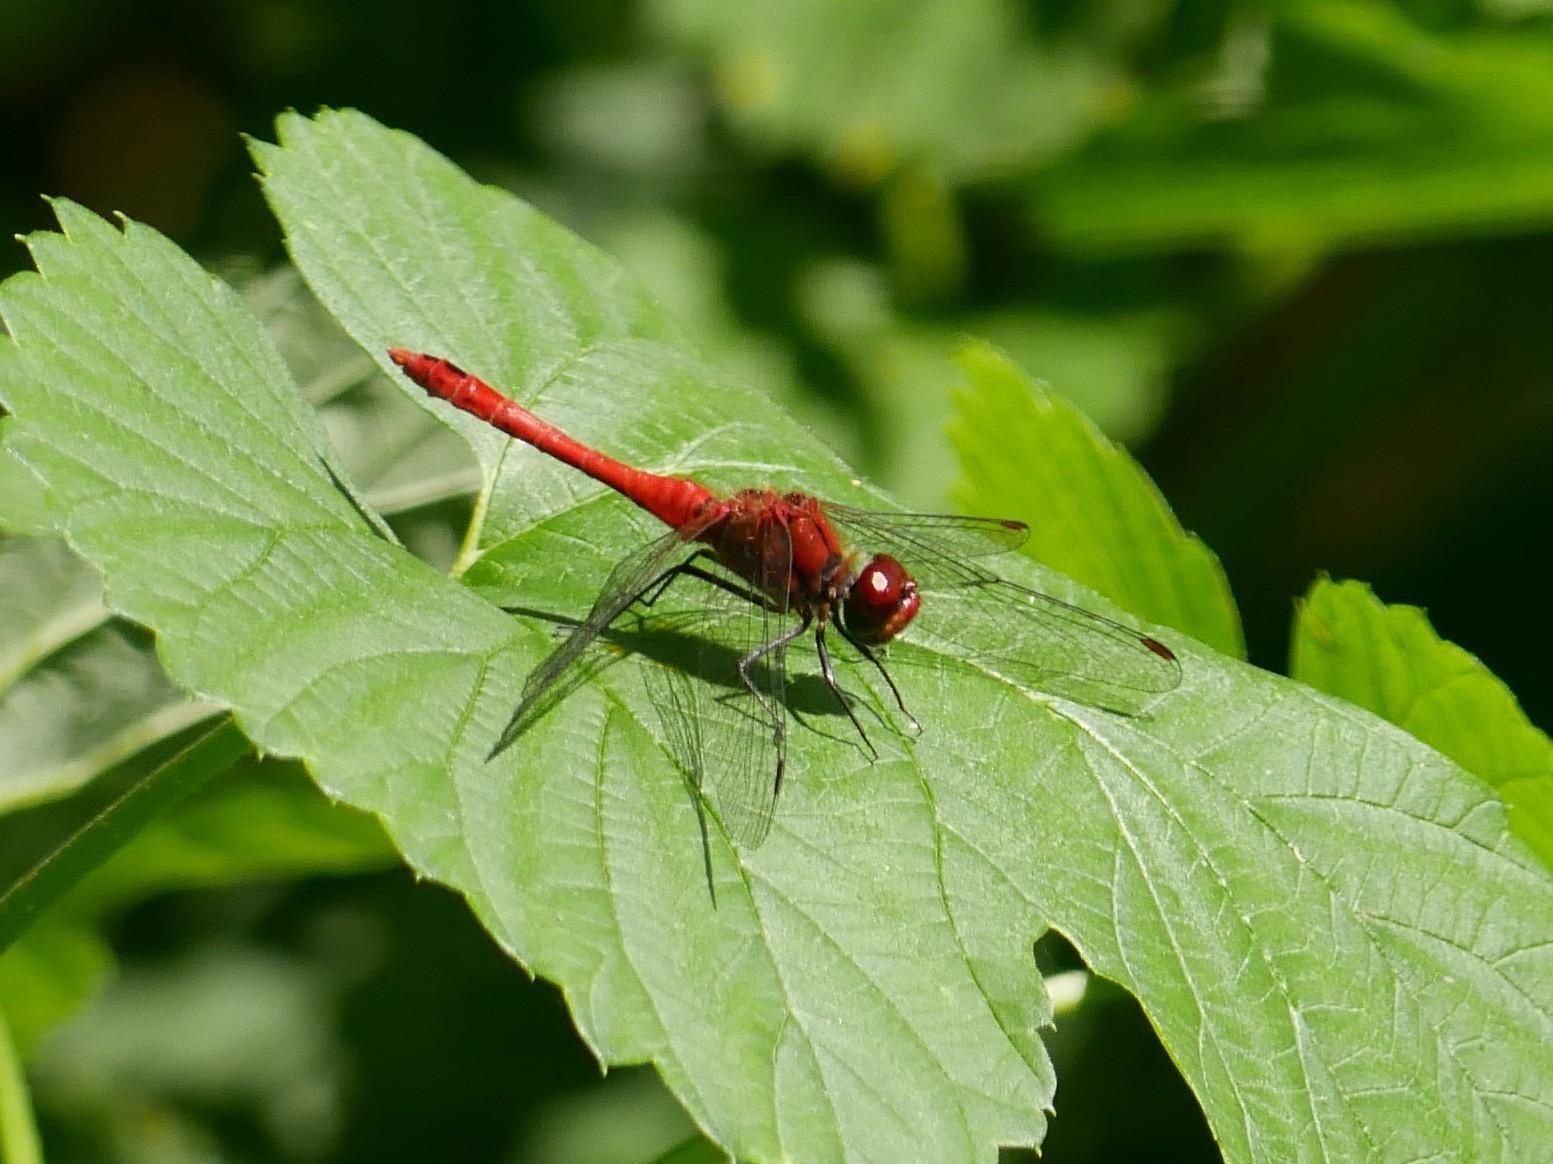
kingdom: Animalia
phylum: Arthropoda
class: Insecta
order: Odonata
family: Libellulidae
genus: Sympetrum
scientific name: Sympetrum sanguineum
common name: Ruddy darter
